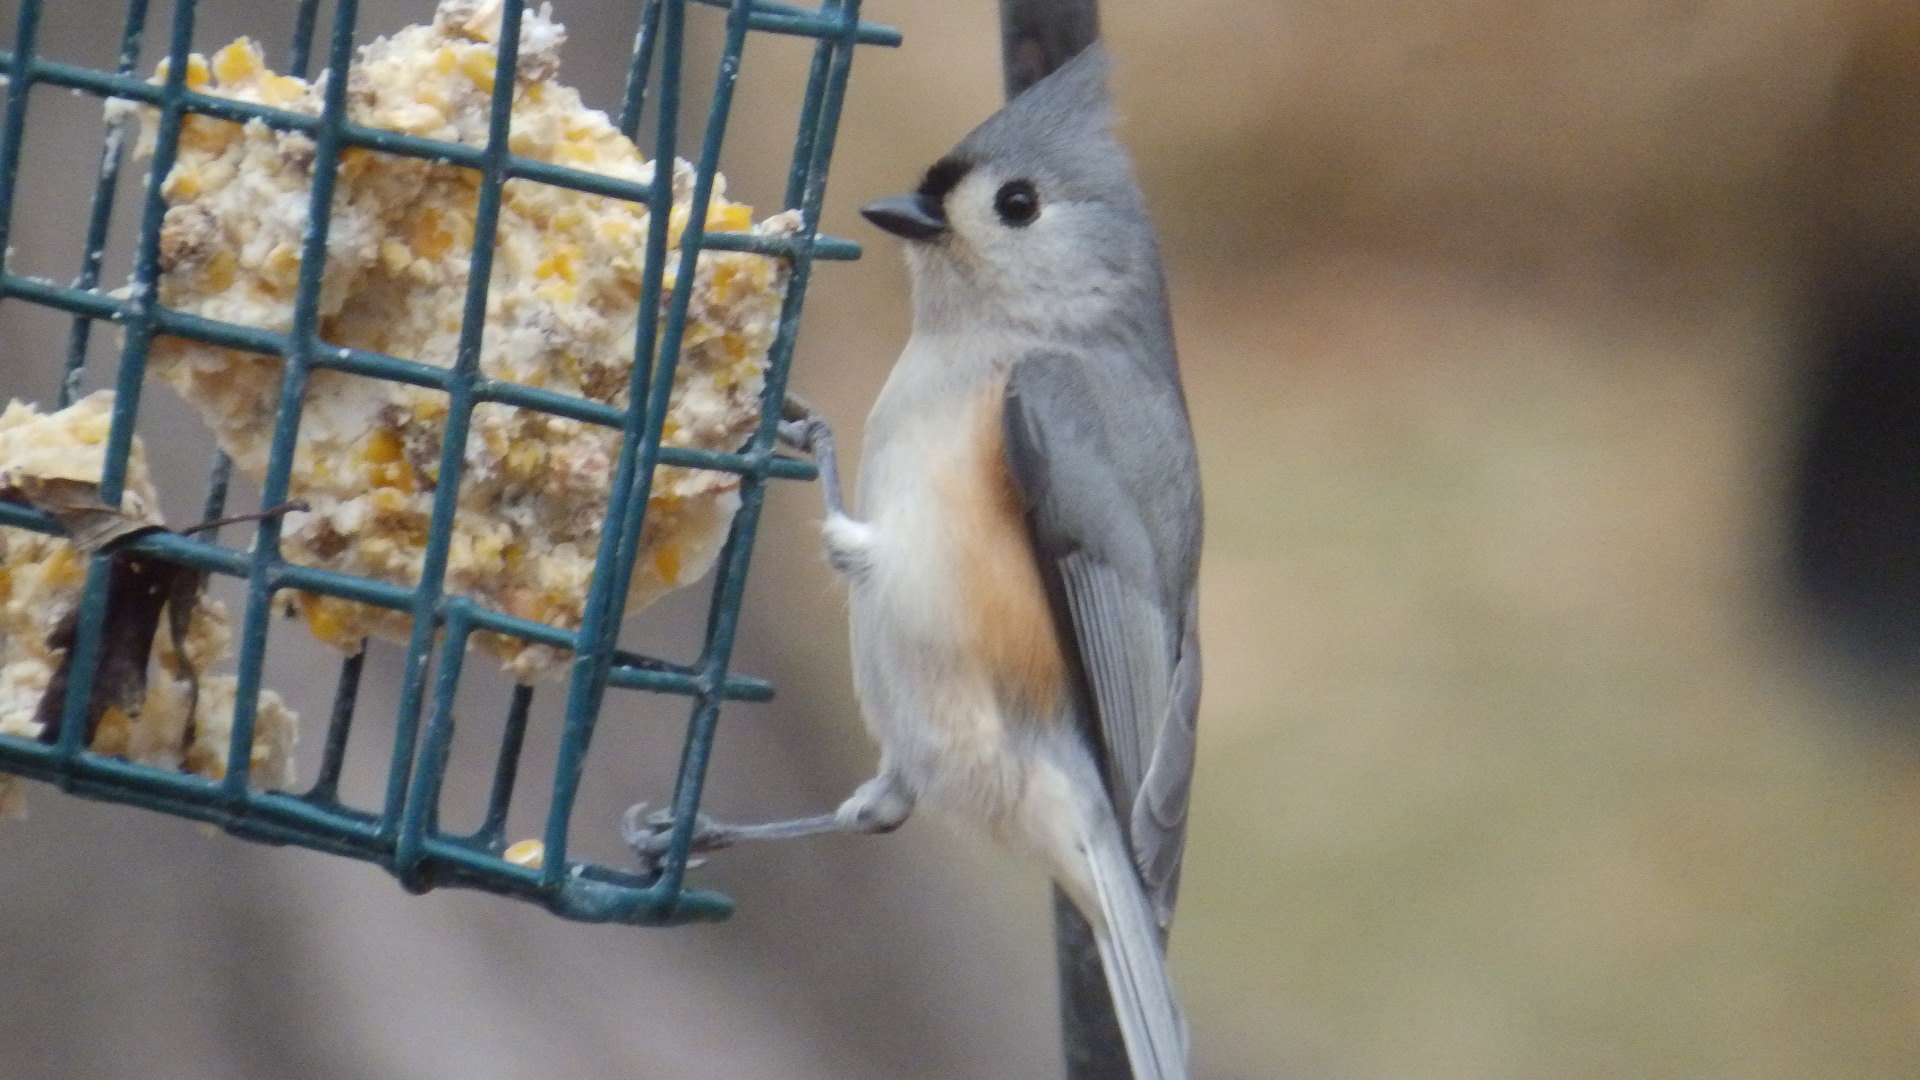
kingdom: Animalia
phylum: Chordata
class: Aves
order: Passeriformes
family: Paridae
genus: Baeolophus
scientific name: Baeolophus bicolor
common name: Tufted titmouse
